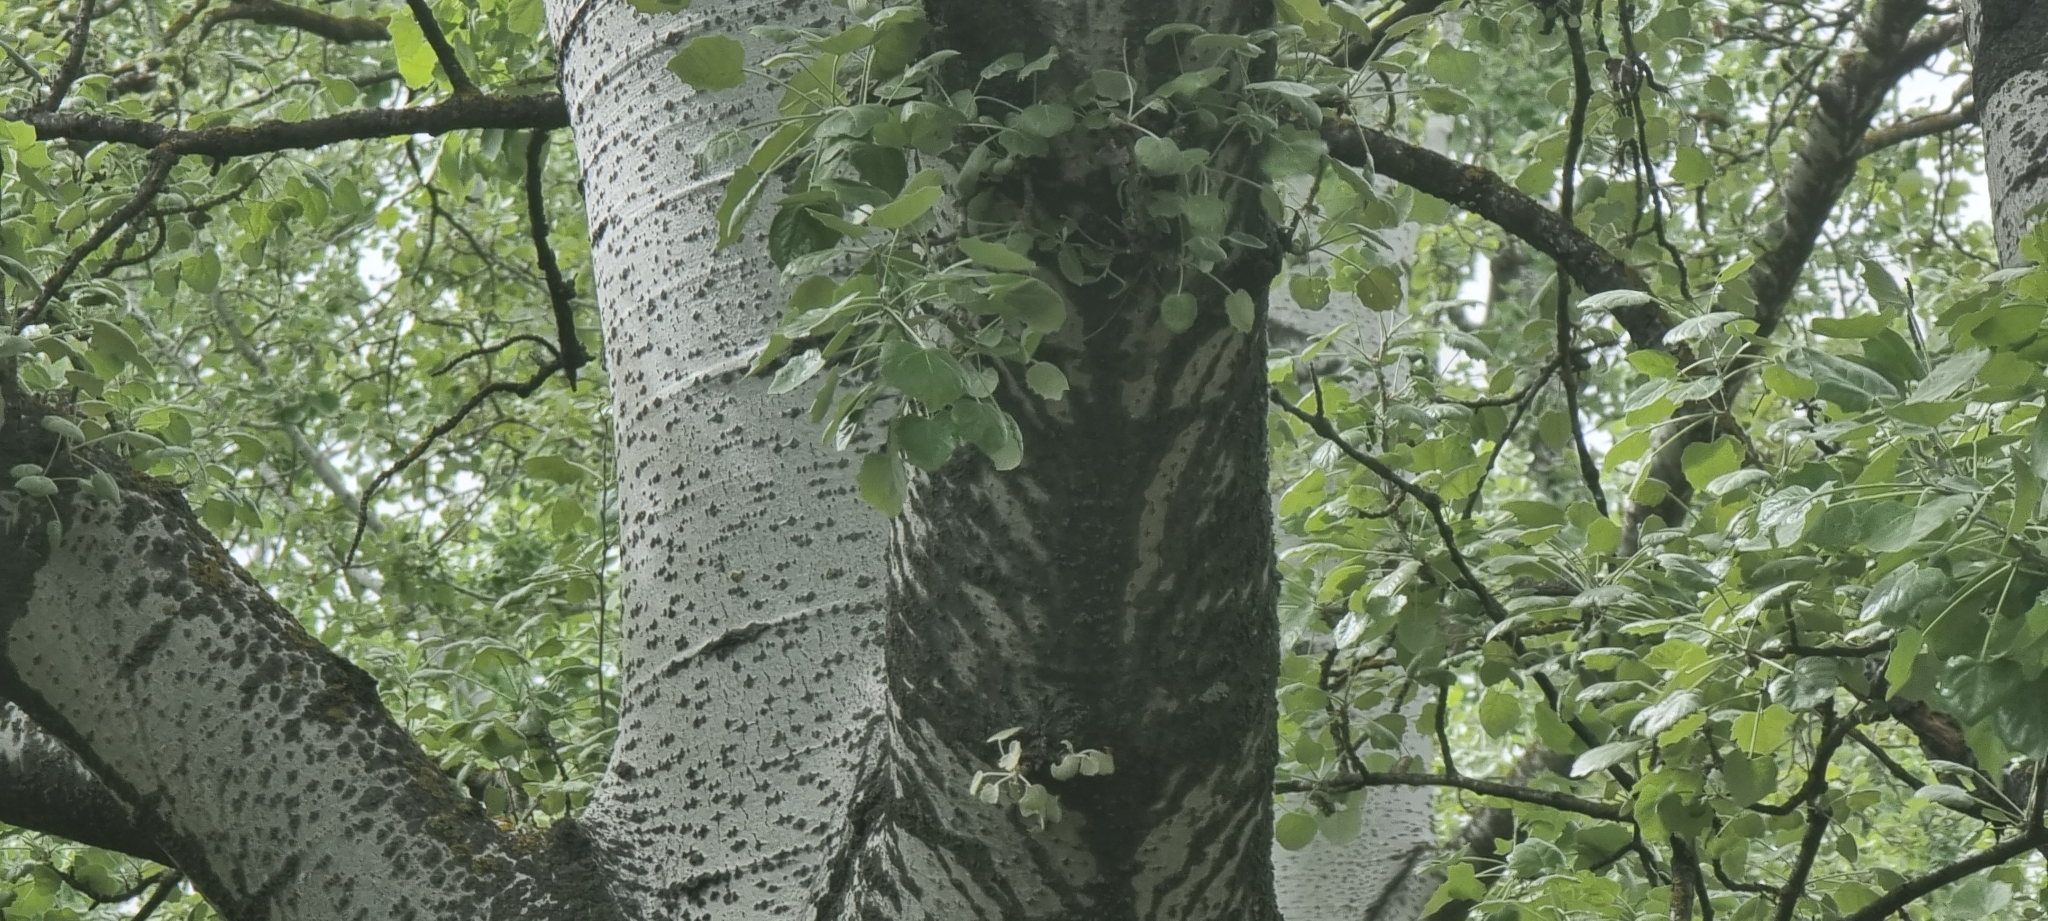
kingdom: Plantae
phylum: Tracheophyta
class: Magnoliopsida
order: Malpighiales
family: Salicaceae
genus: Populus
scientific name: Populus canescens
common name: Gray poplar
